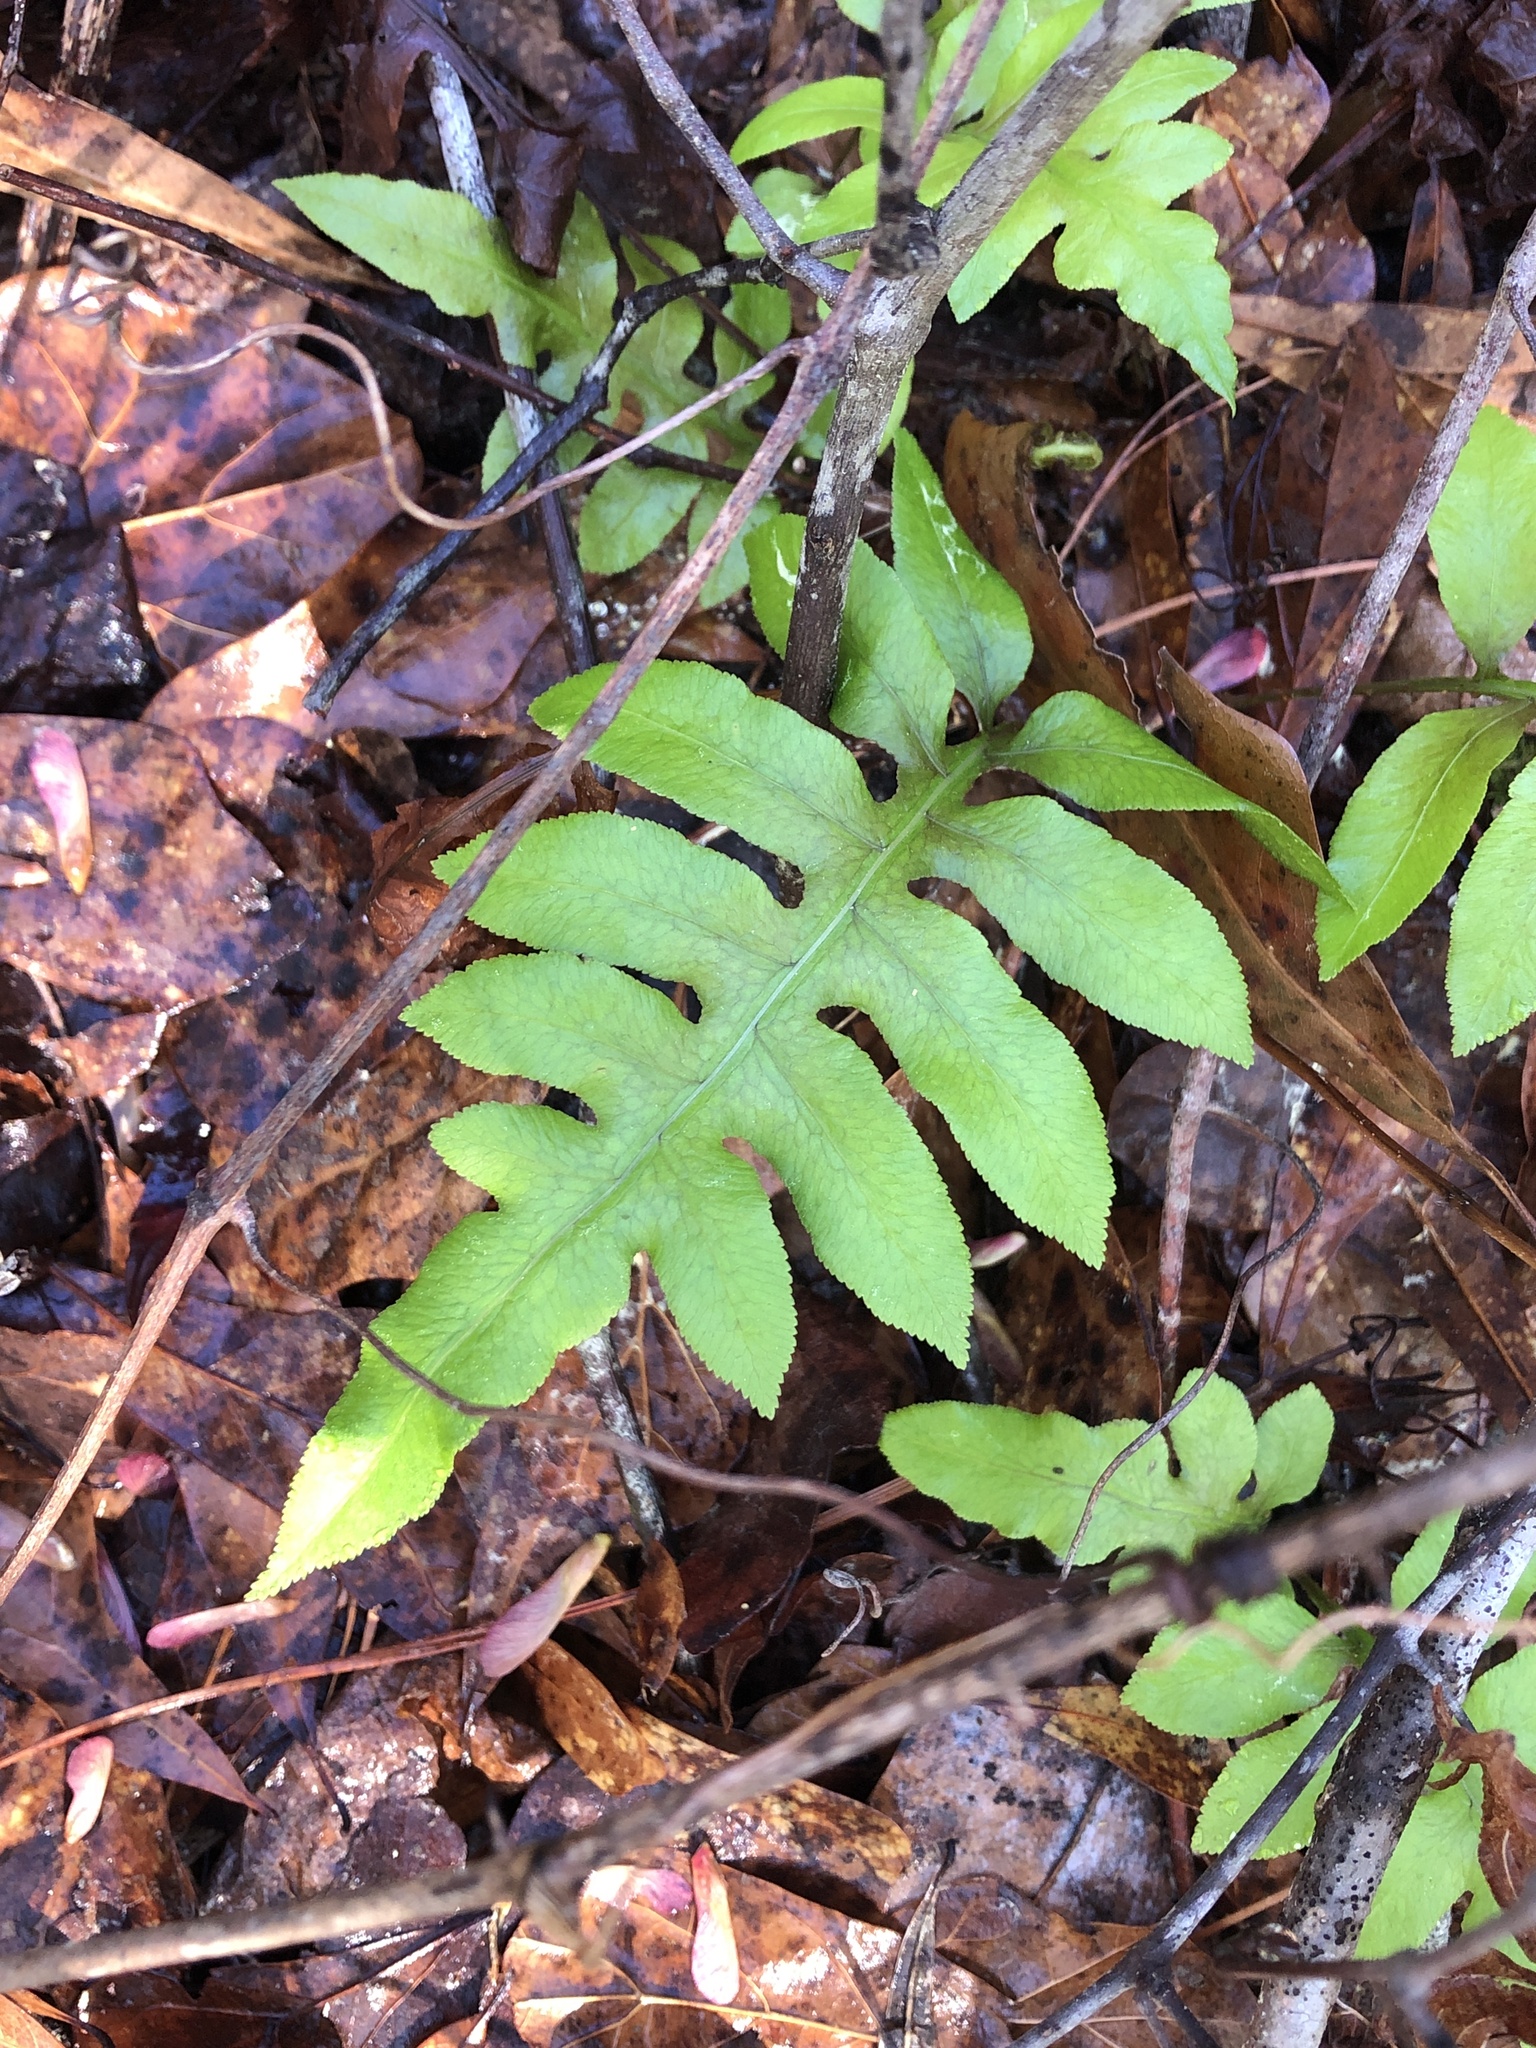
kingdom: Plantae
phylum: Tracheophyta
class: Polypodiopsida
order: Polypodiales
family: Blechnaceae
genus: Lorinseria
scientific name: Lorinseria areolata
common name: Dwarf chain fern
